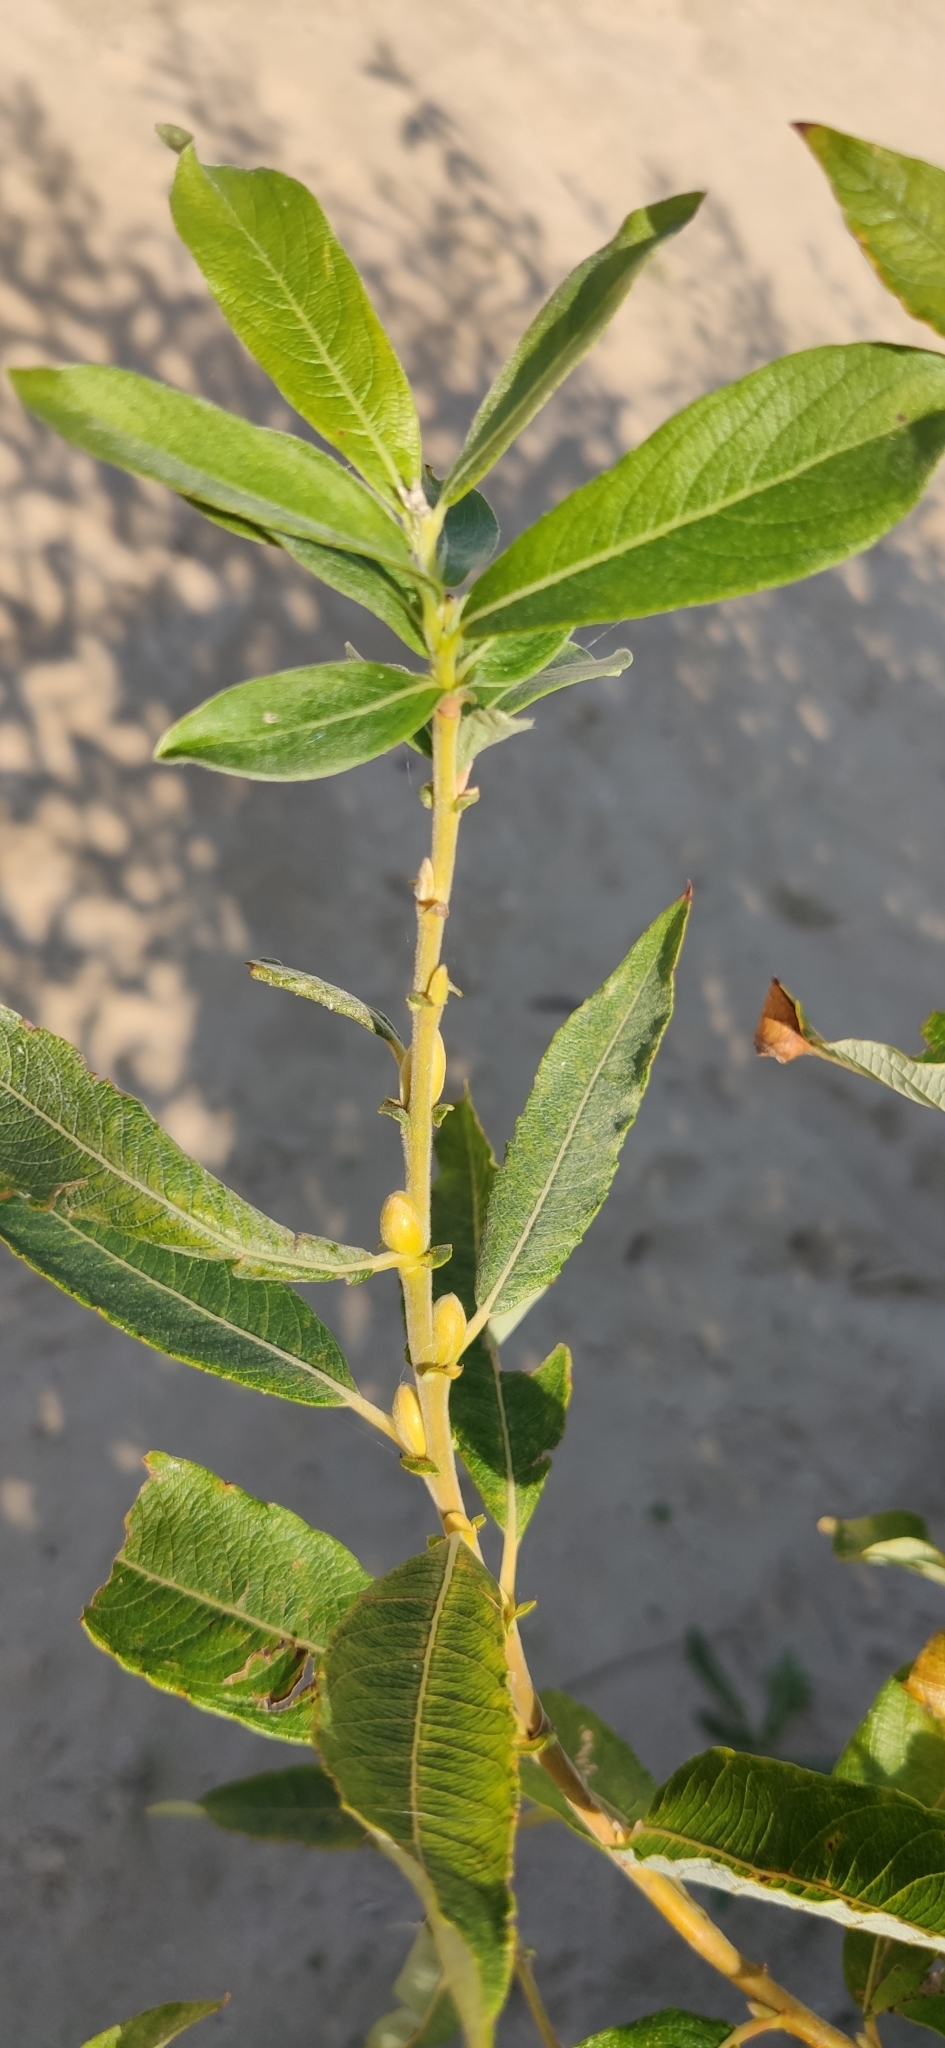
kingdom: Plantae
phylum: Tracheophyta
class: Magnoliopsida
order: Malpighiales
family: Salicaceae
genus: Salix
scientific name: Salix cinerea
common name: Common sallow
